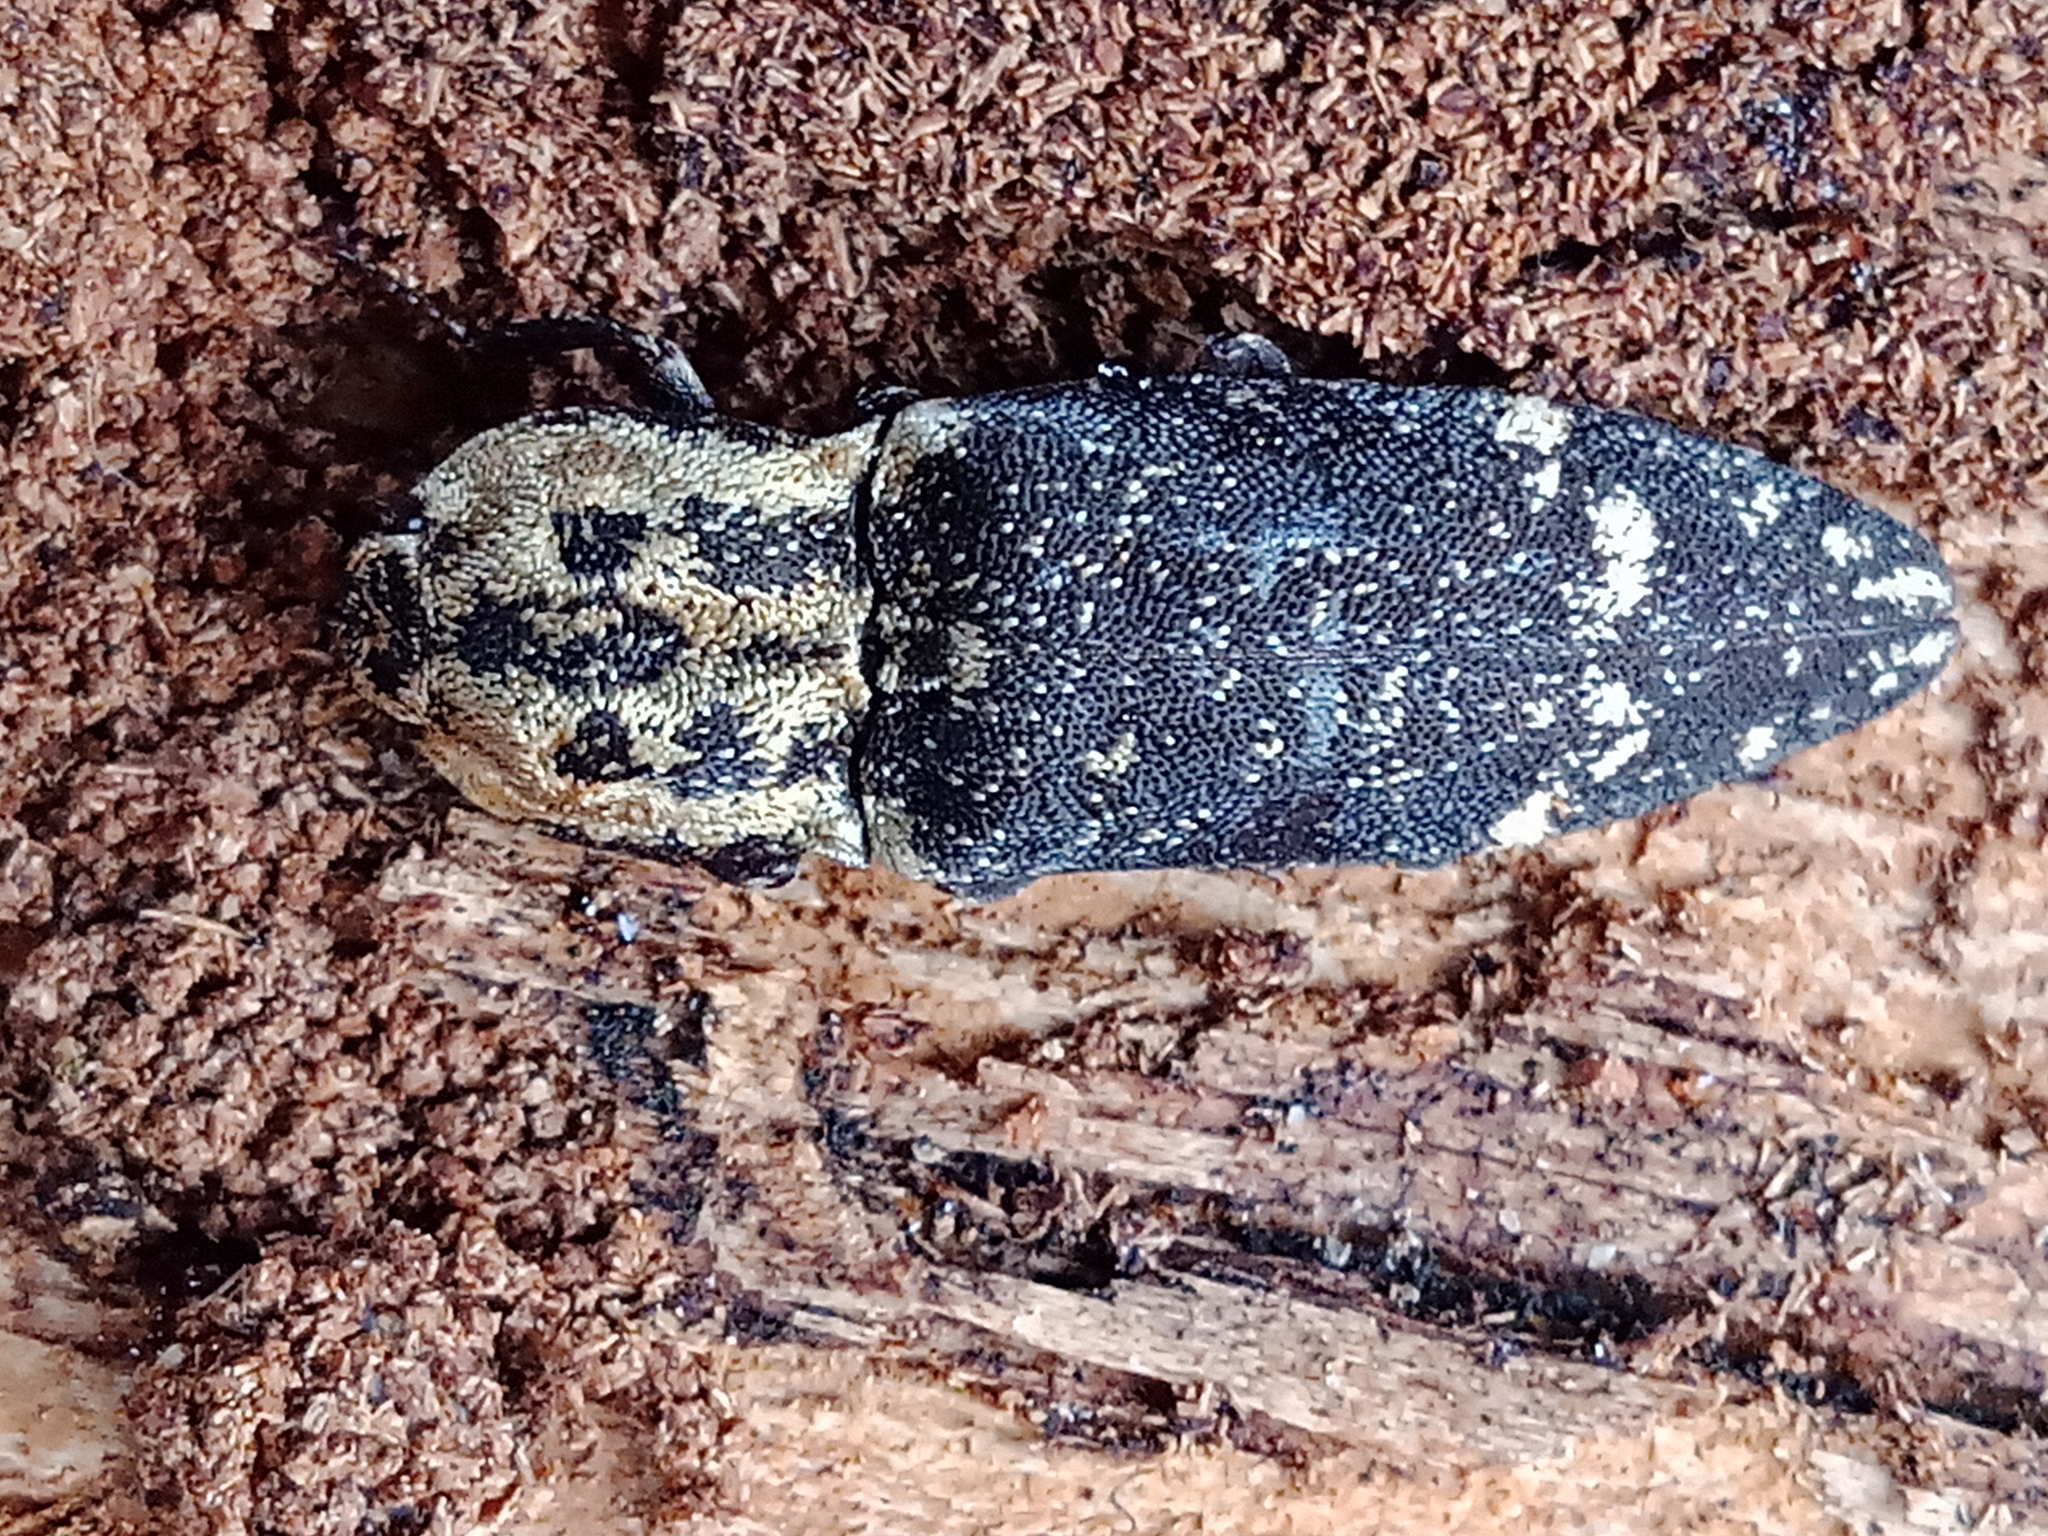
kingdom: Animalia
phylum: Arthropoda
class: Insecta
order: Coleoptera
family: Elateridae
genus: Danosoma
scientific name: Danosoma fasciatum
